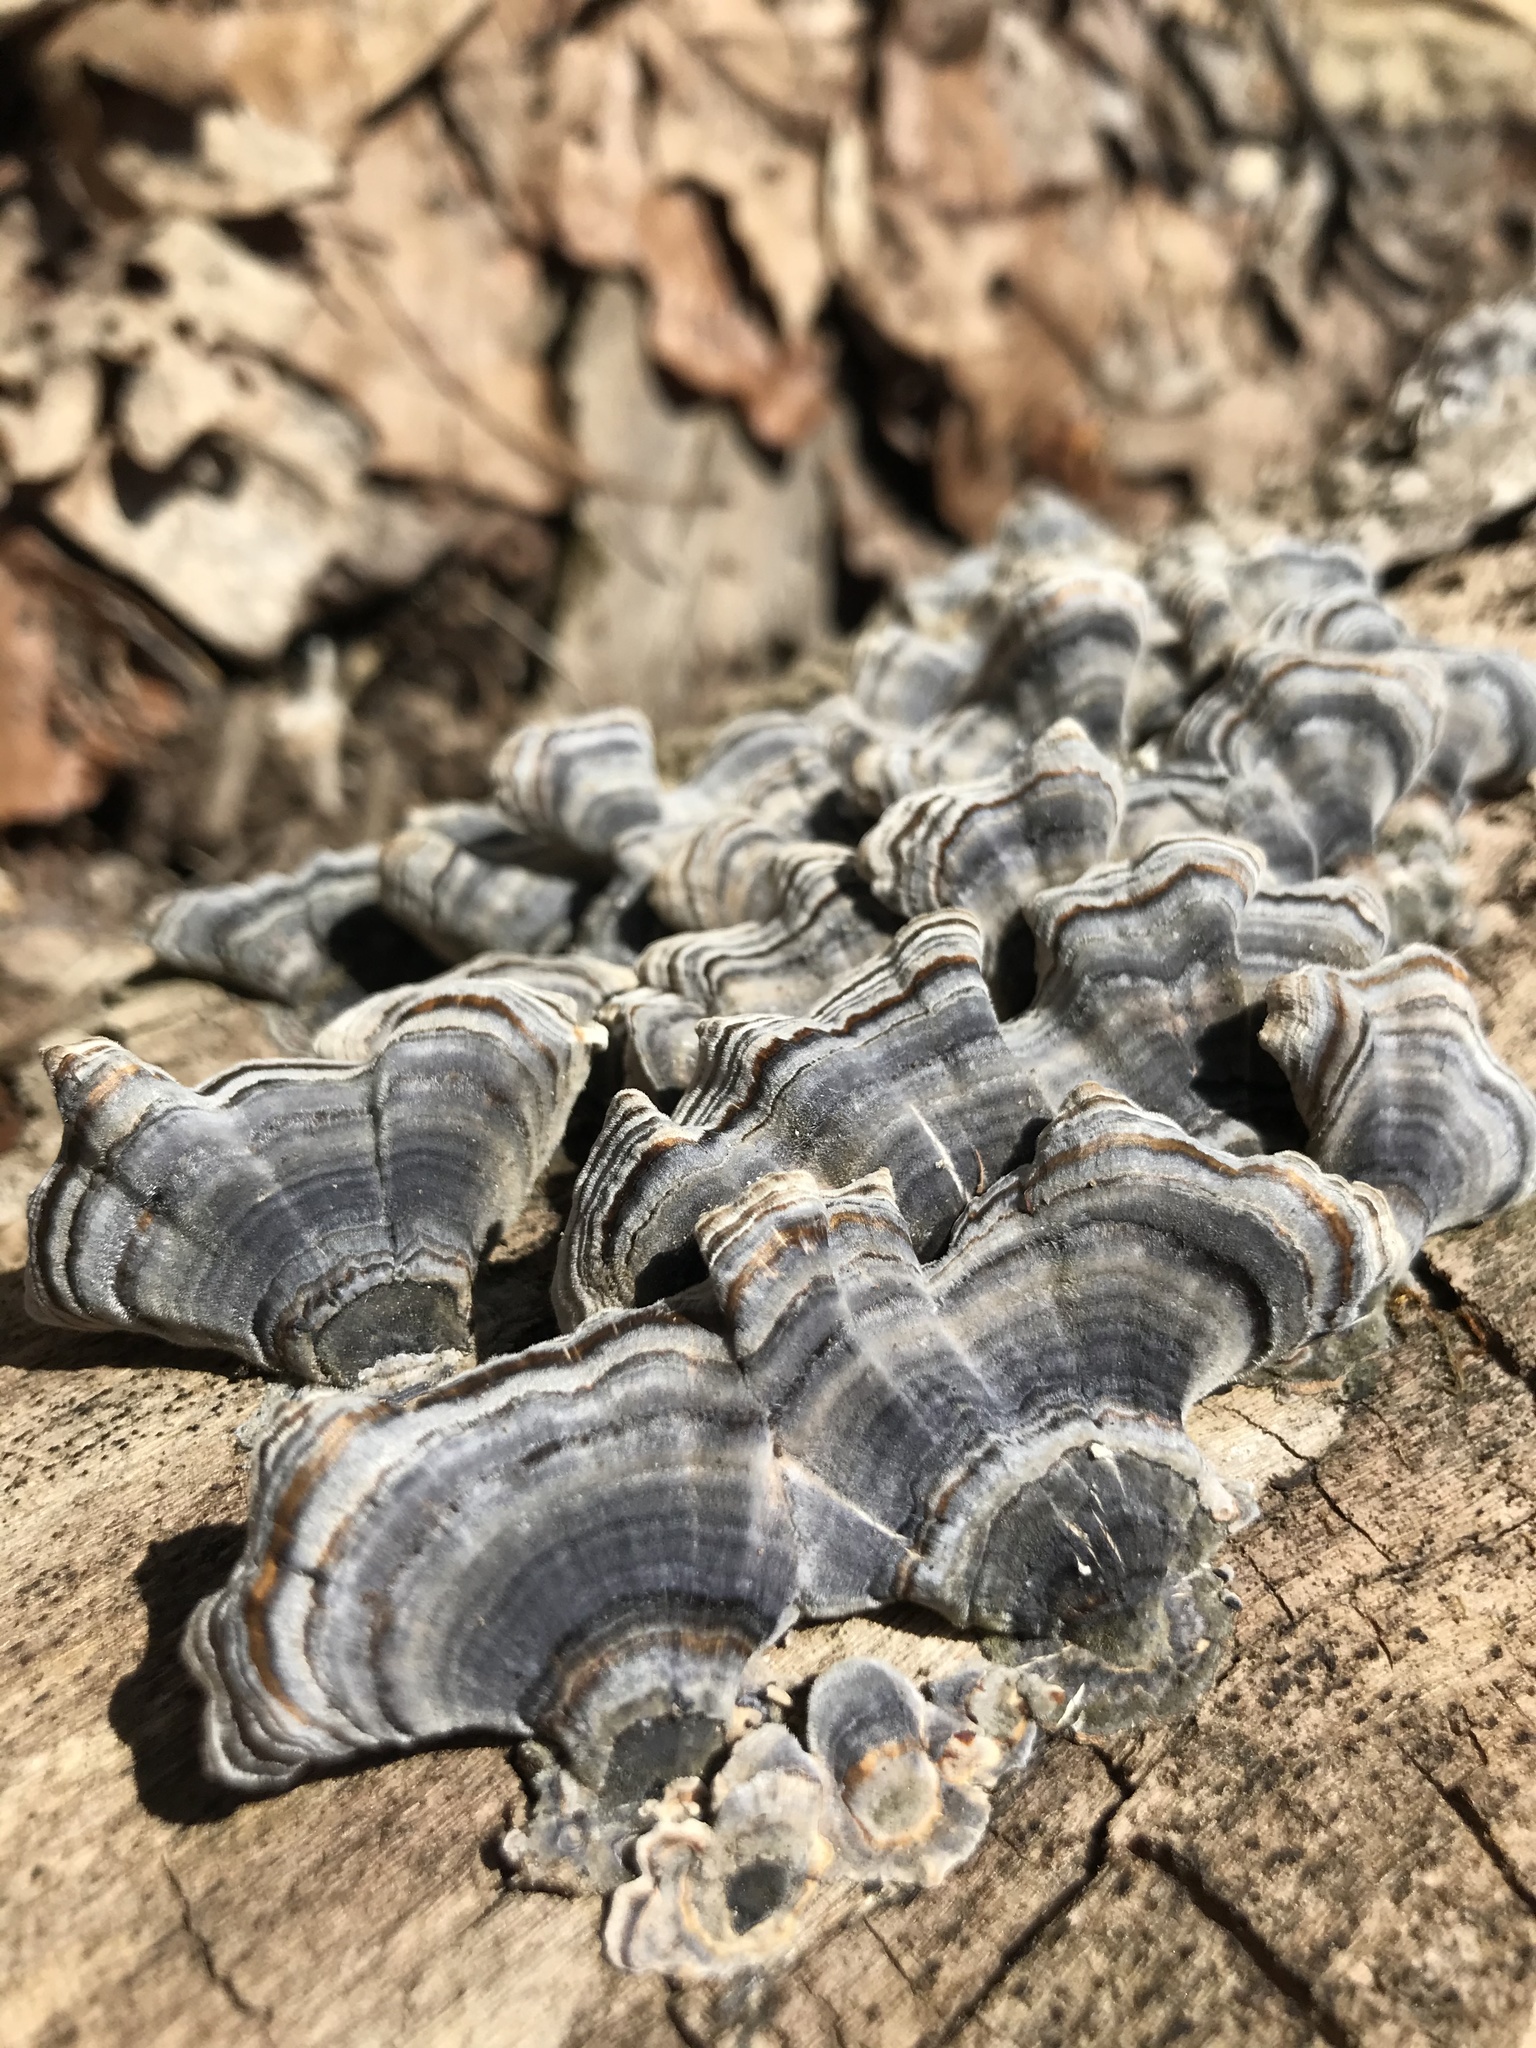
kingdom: Fungi
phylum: Basidiomycota
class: Agaricomycetes
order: Polyporales
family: Polyporaceae
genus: Trametes
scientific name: Trametes versicolor
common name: Turkeytail
